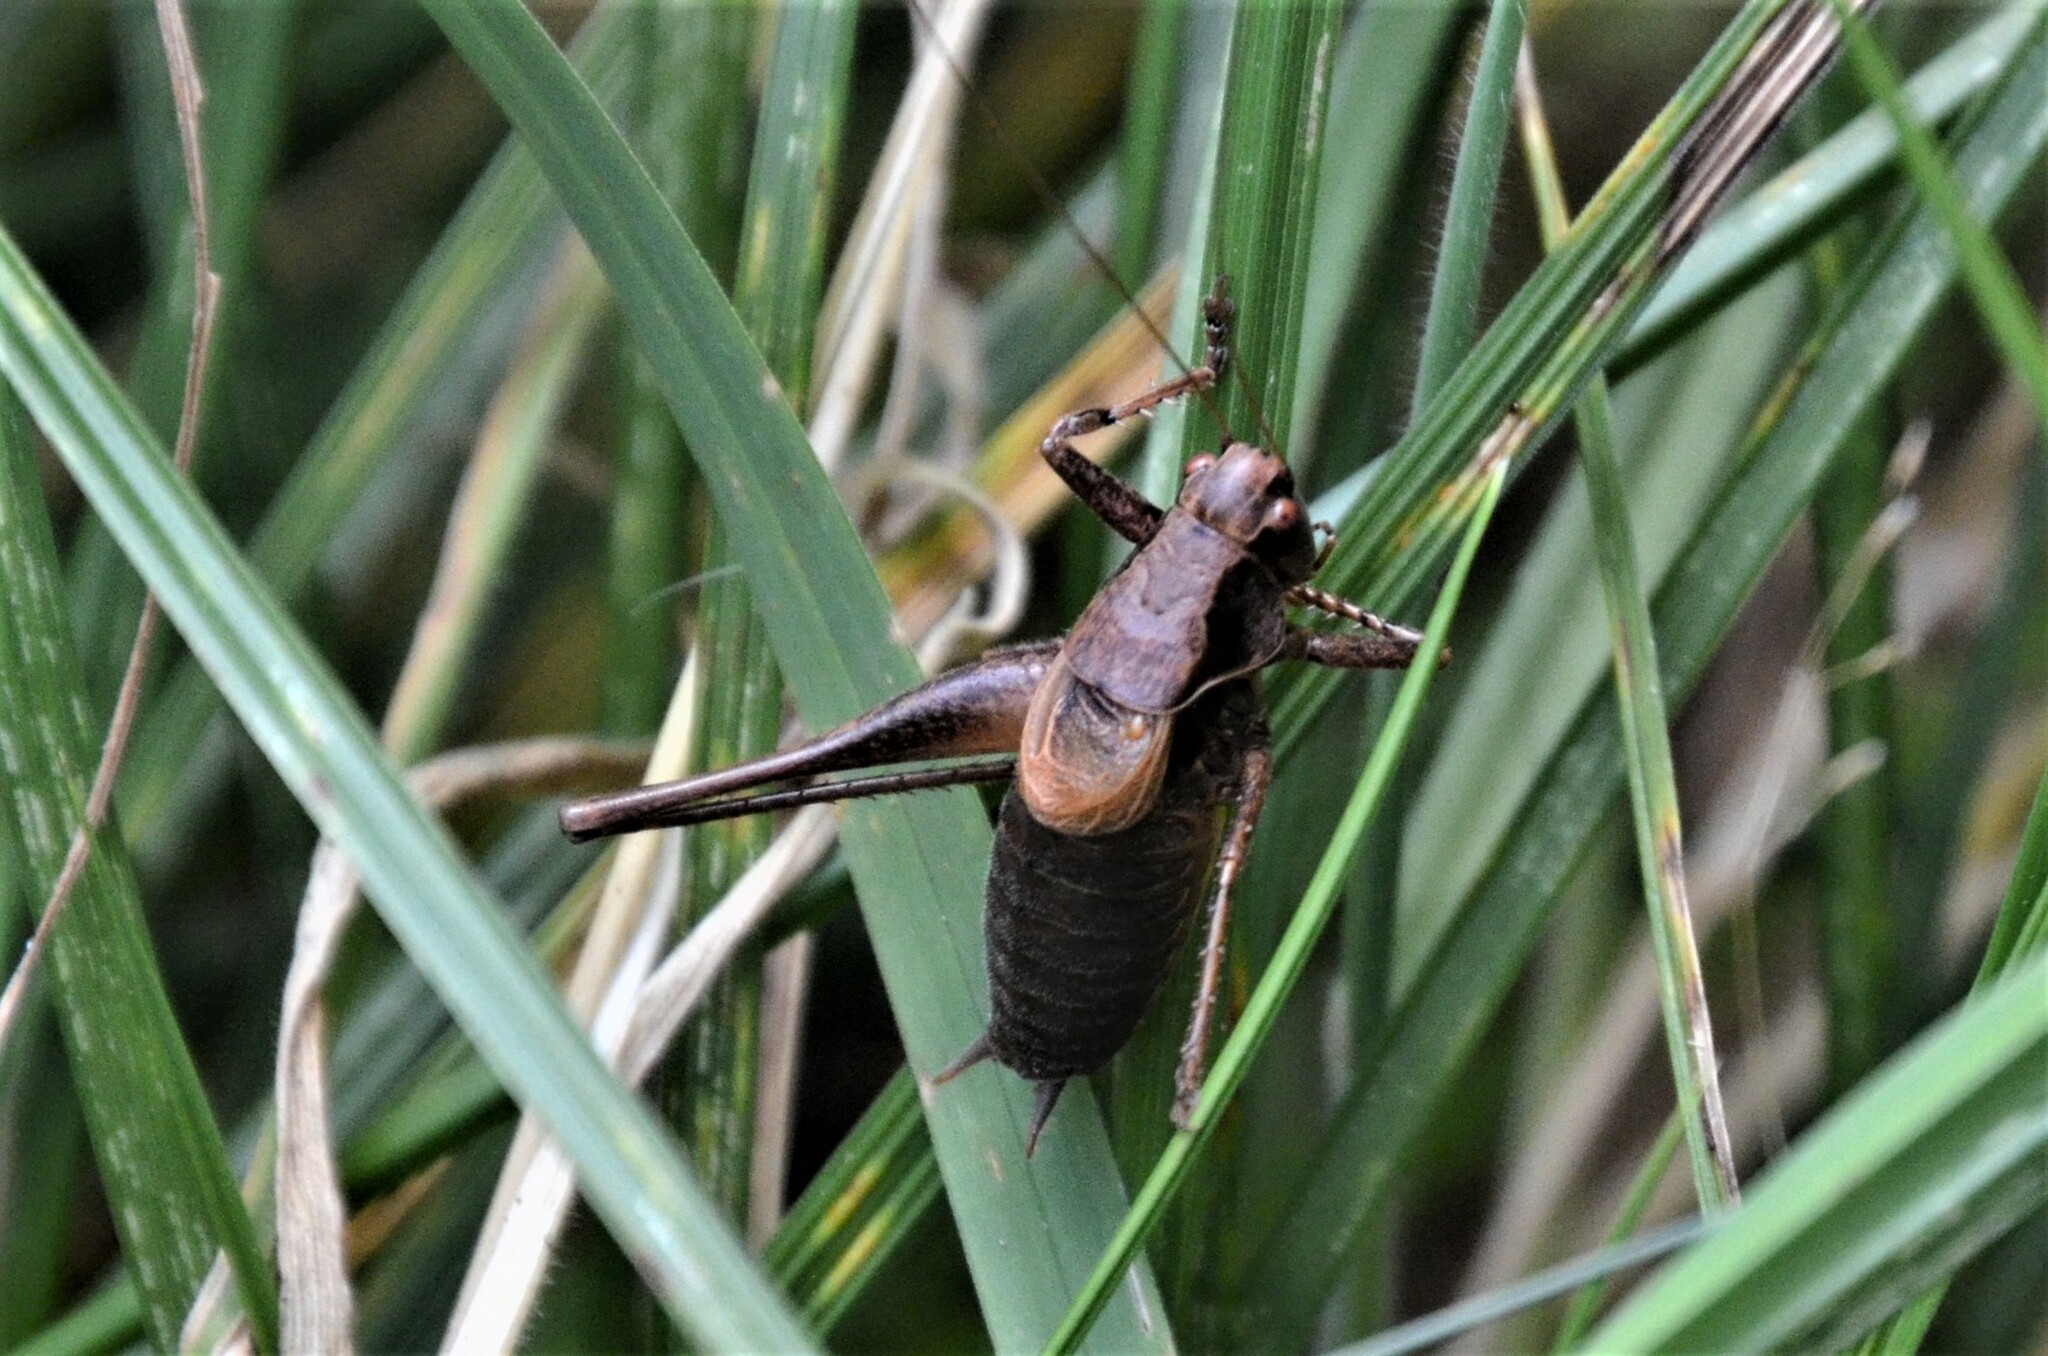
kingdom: Animalia
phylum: Arthropoda
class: Insecta
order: Orthoptera
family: Tettigoniidae
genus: Pholidoptera
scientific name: Pholidoptera griseoaptera
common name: Dark bush-cricket
